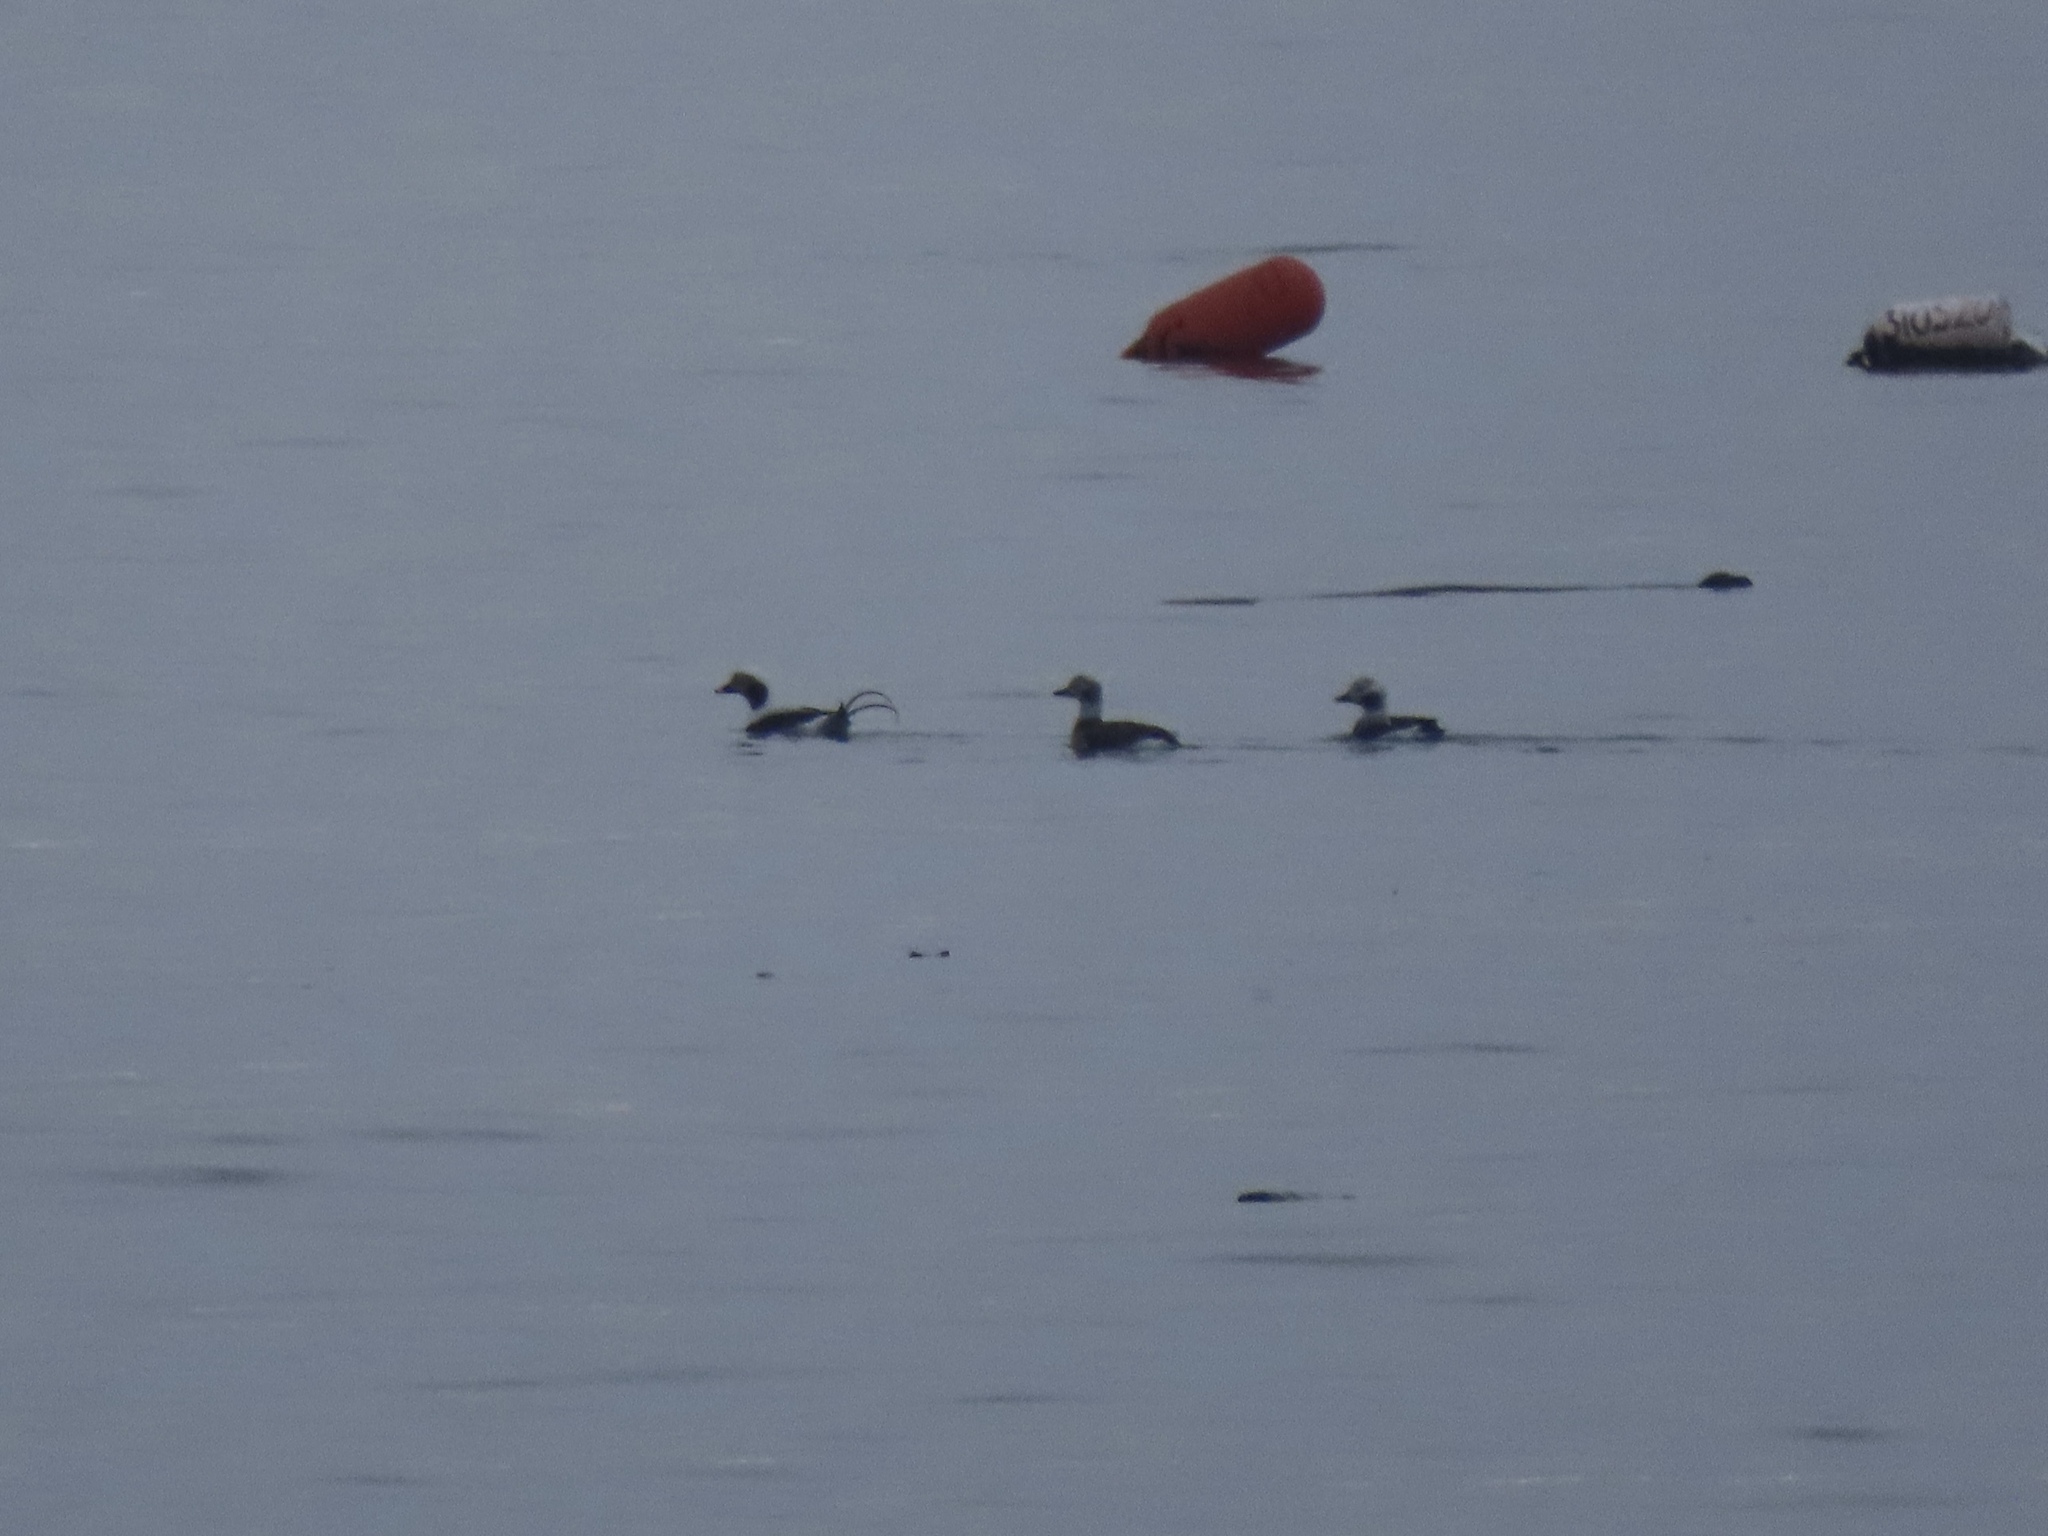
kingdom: Animalia
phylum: Chordata
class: Aves
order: Anseriformes
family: Anatidae
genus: Clangula
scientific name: Clangula hyemalis
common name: Long-tailed duck
